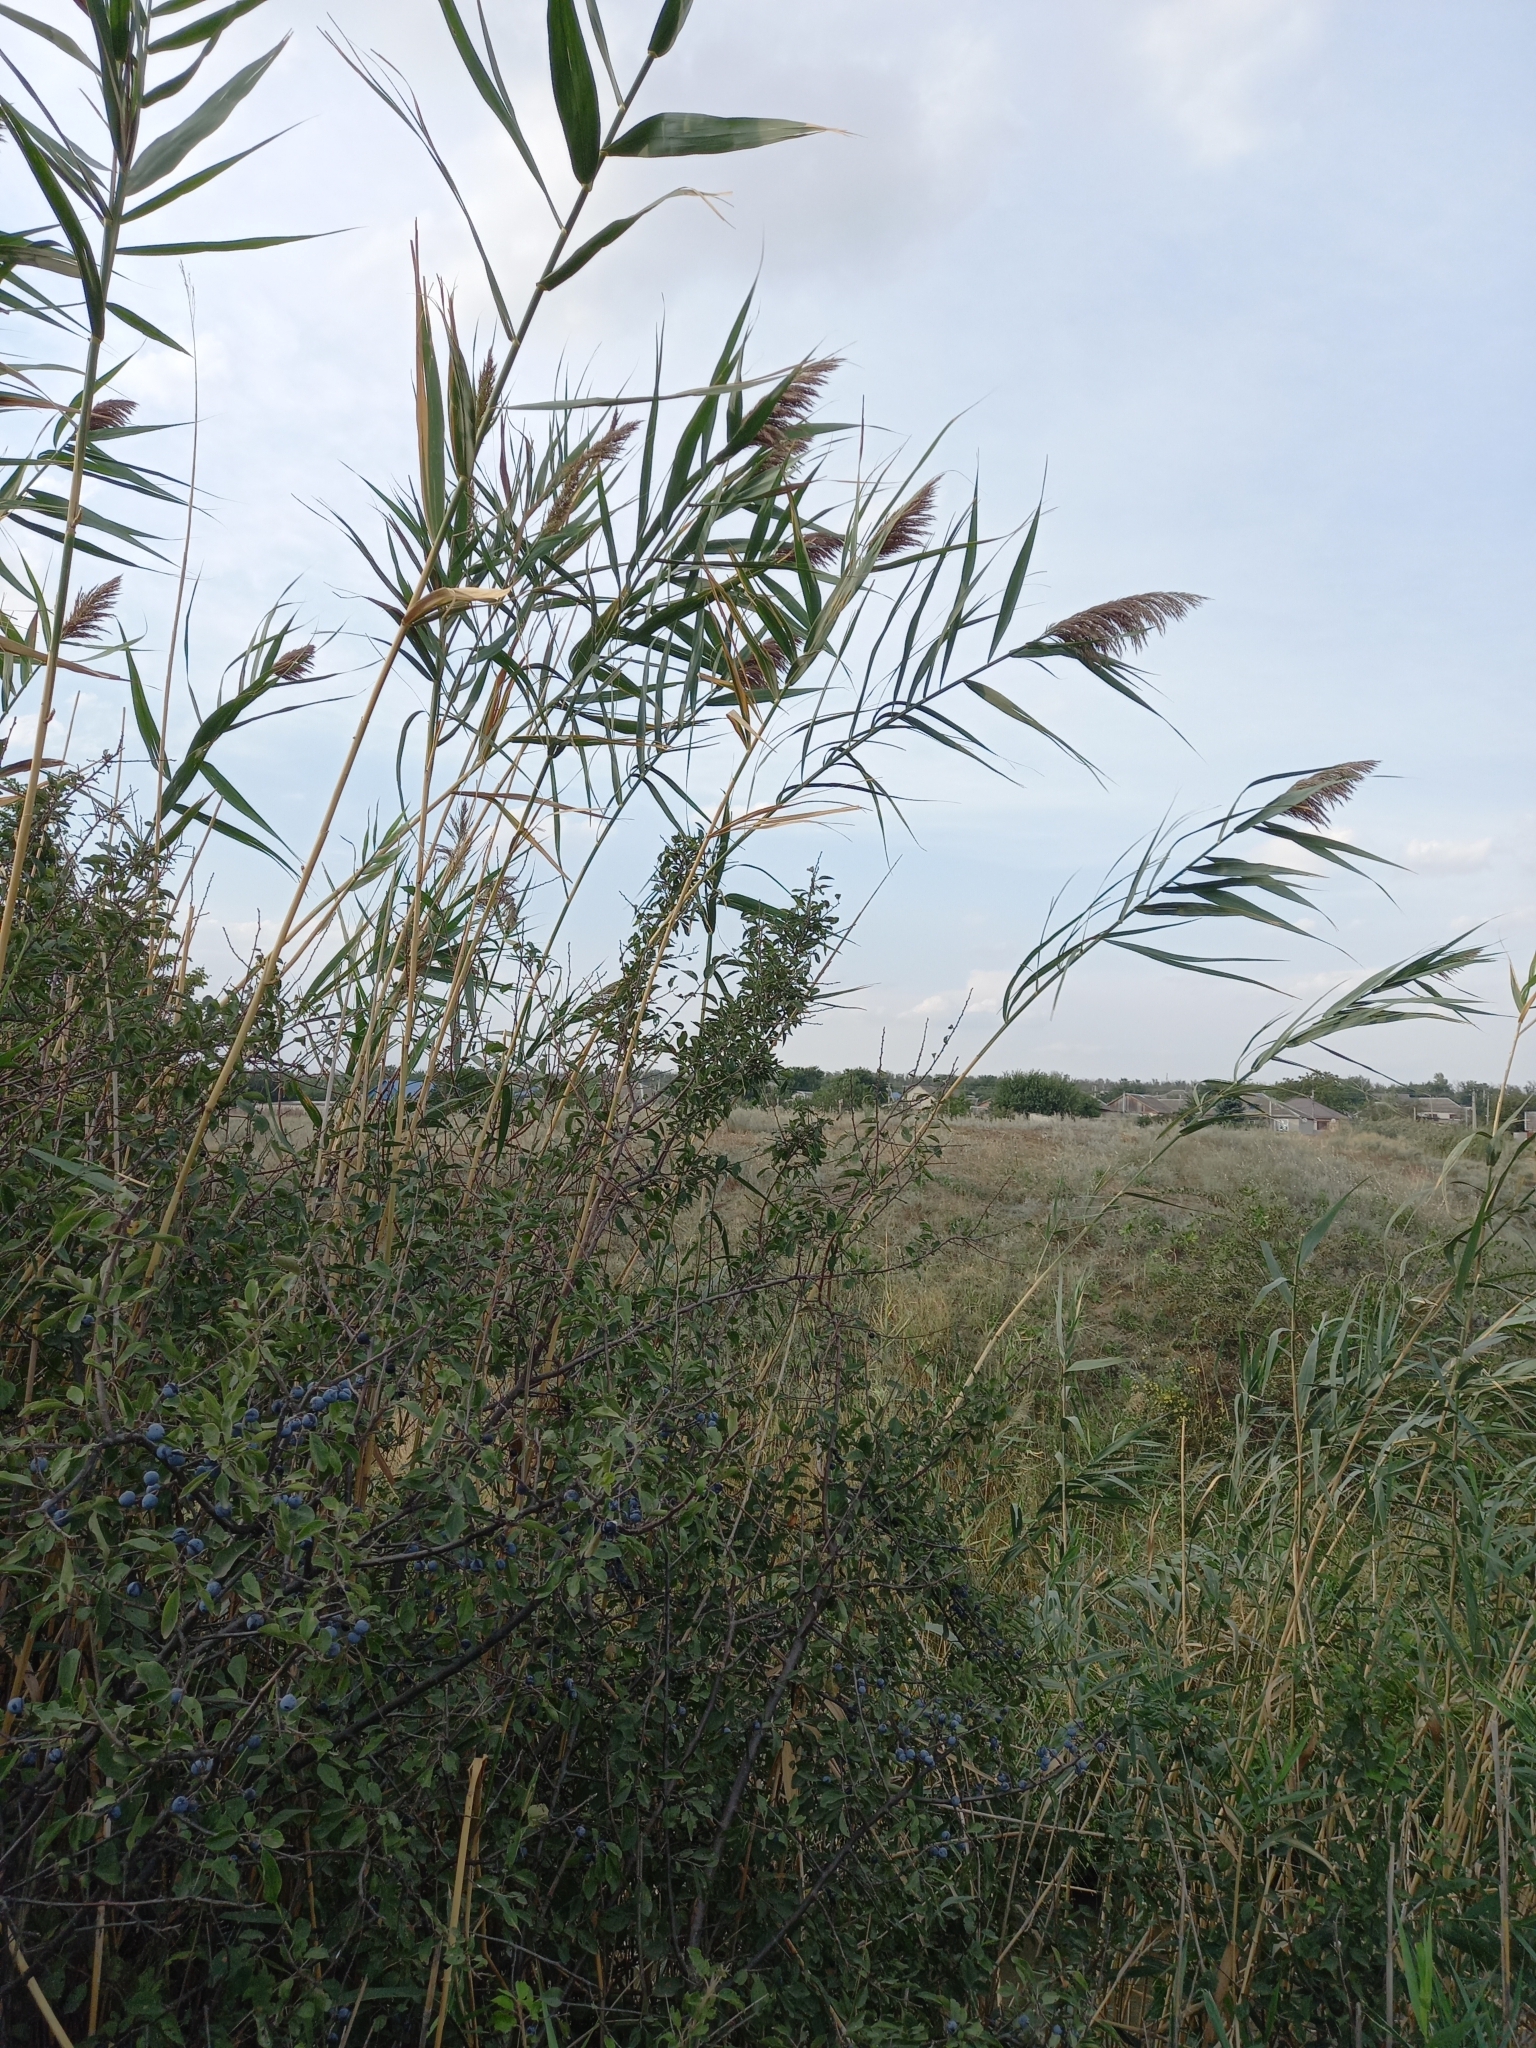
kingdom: Plantae
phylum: Tracheophyta
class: Liliopsida
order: Poales
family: Poaceae
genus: Phragmites
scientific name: Phragmites australis
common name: Common reed
